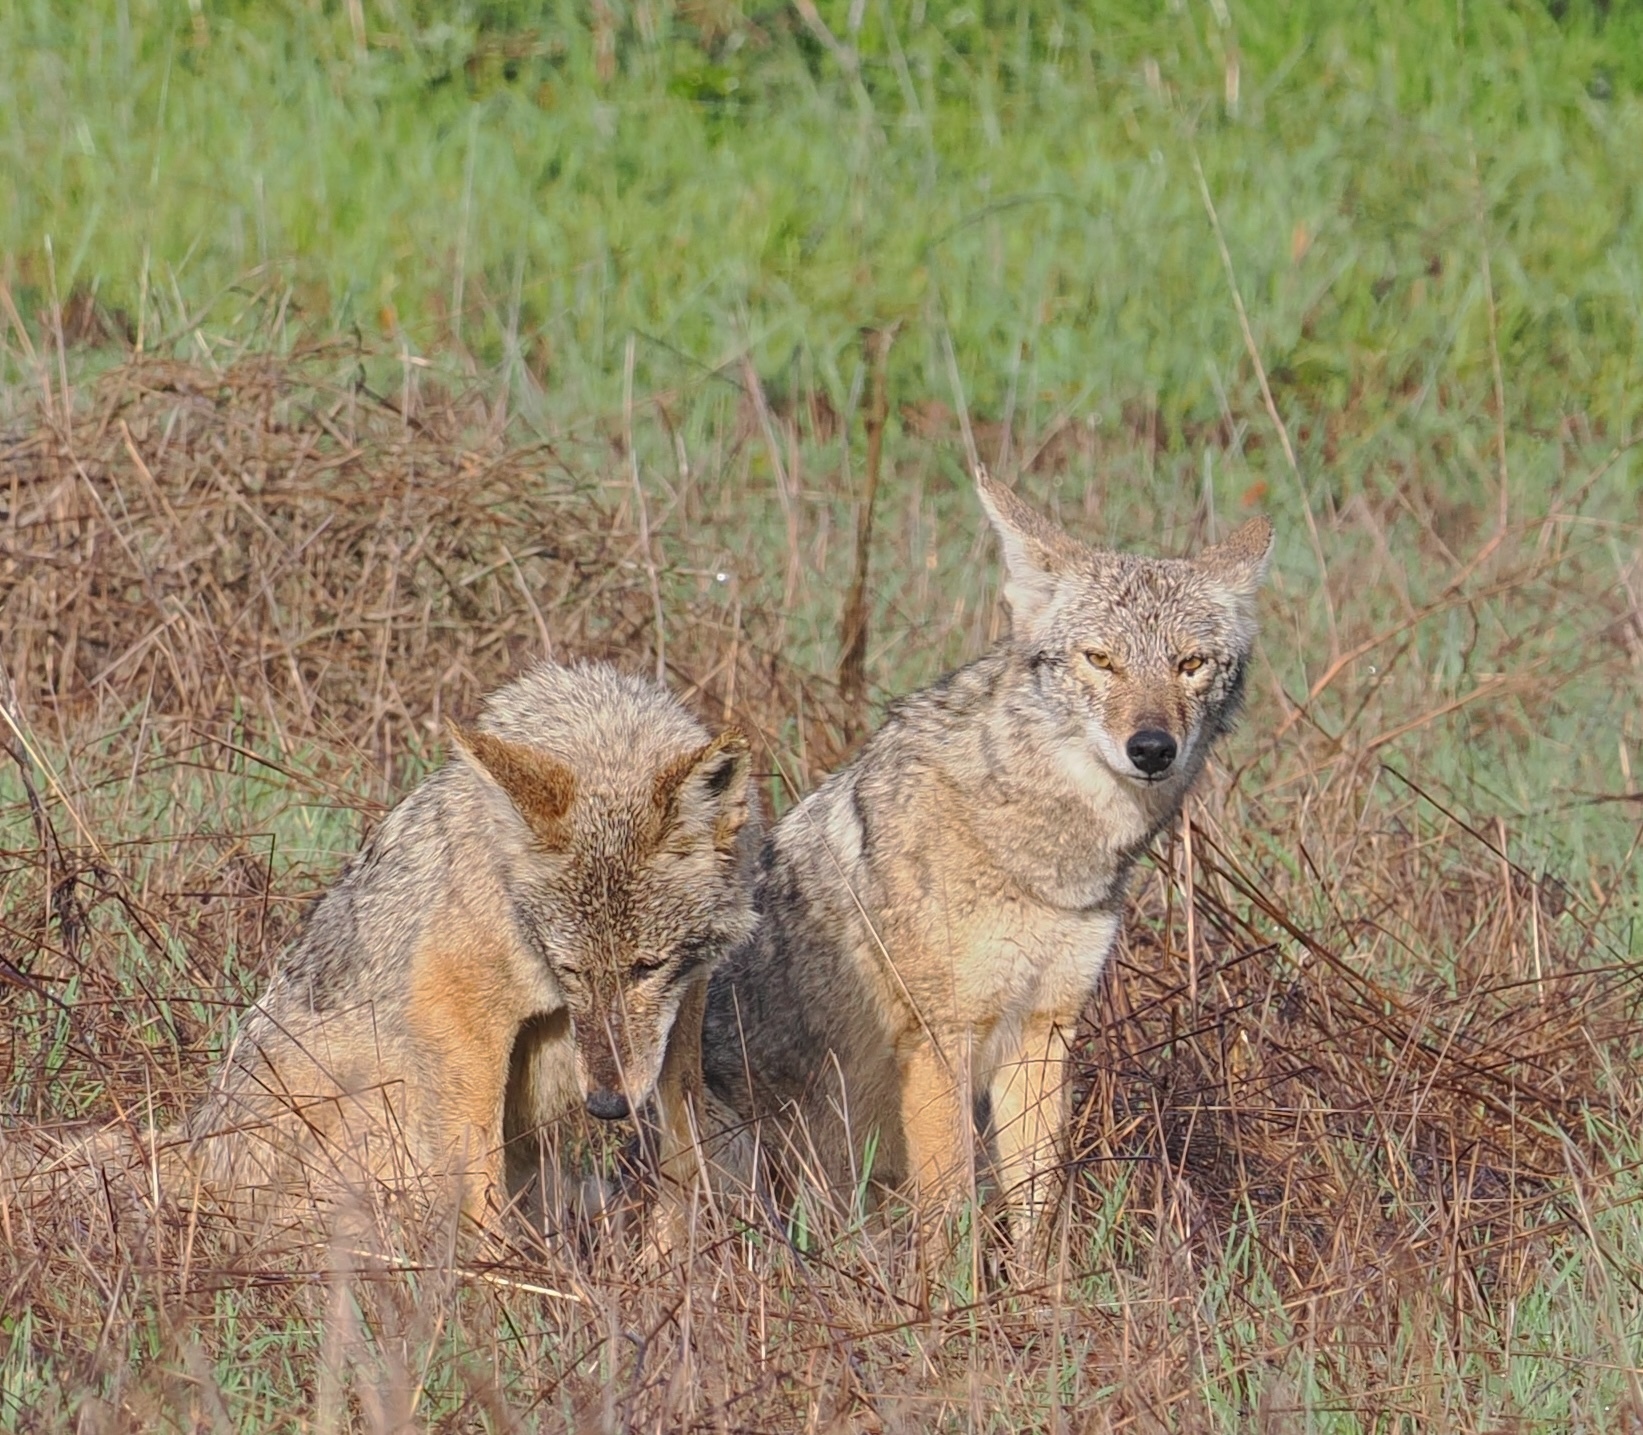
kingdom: Animalia
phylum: Chordata
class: Mammalia
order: Carnivora
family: Canidae
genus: Canis
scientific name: Canis latrans
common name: Coyote
